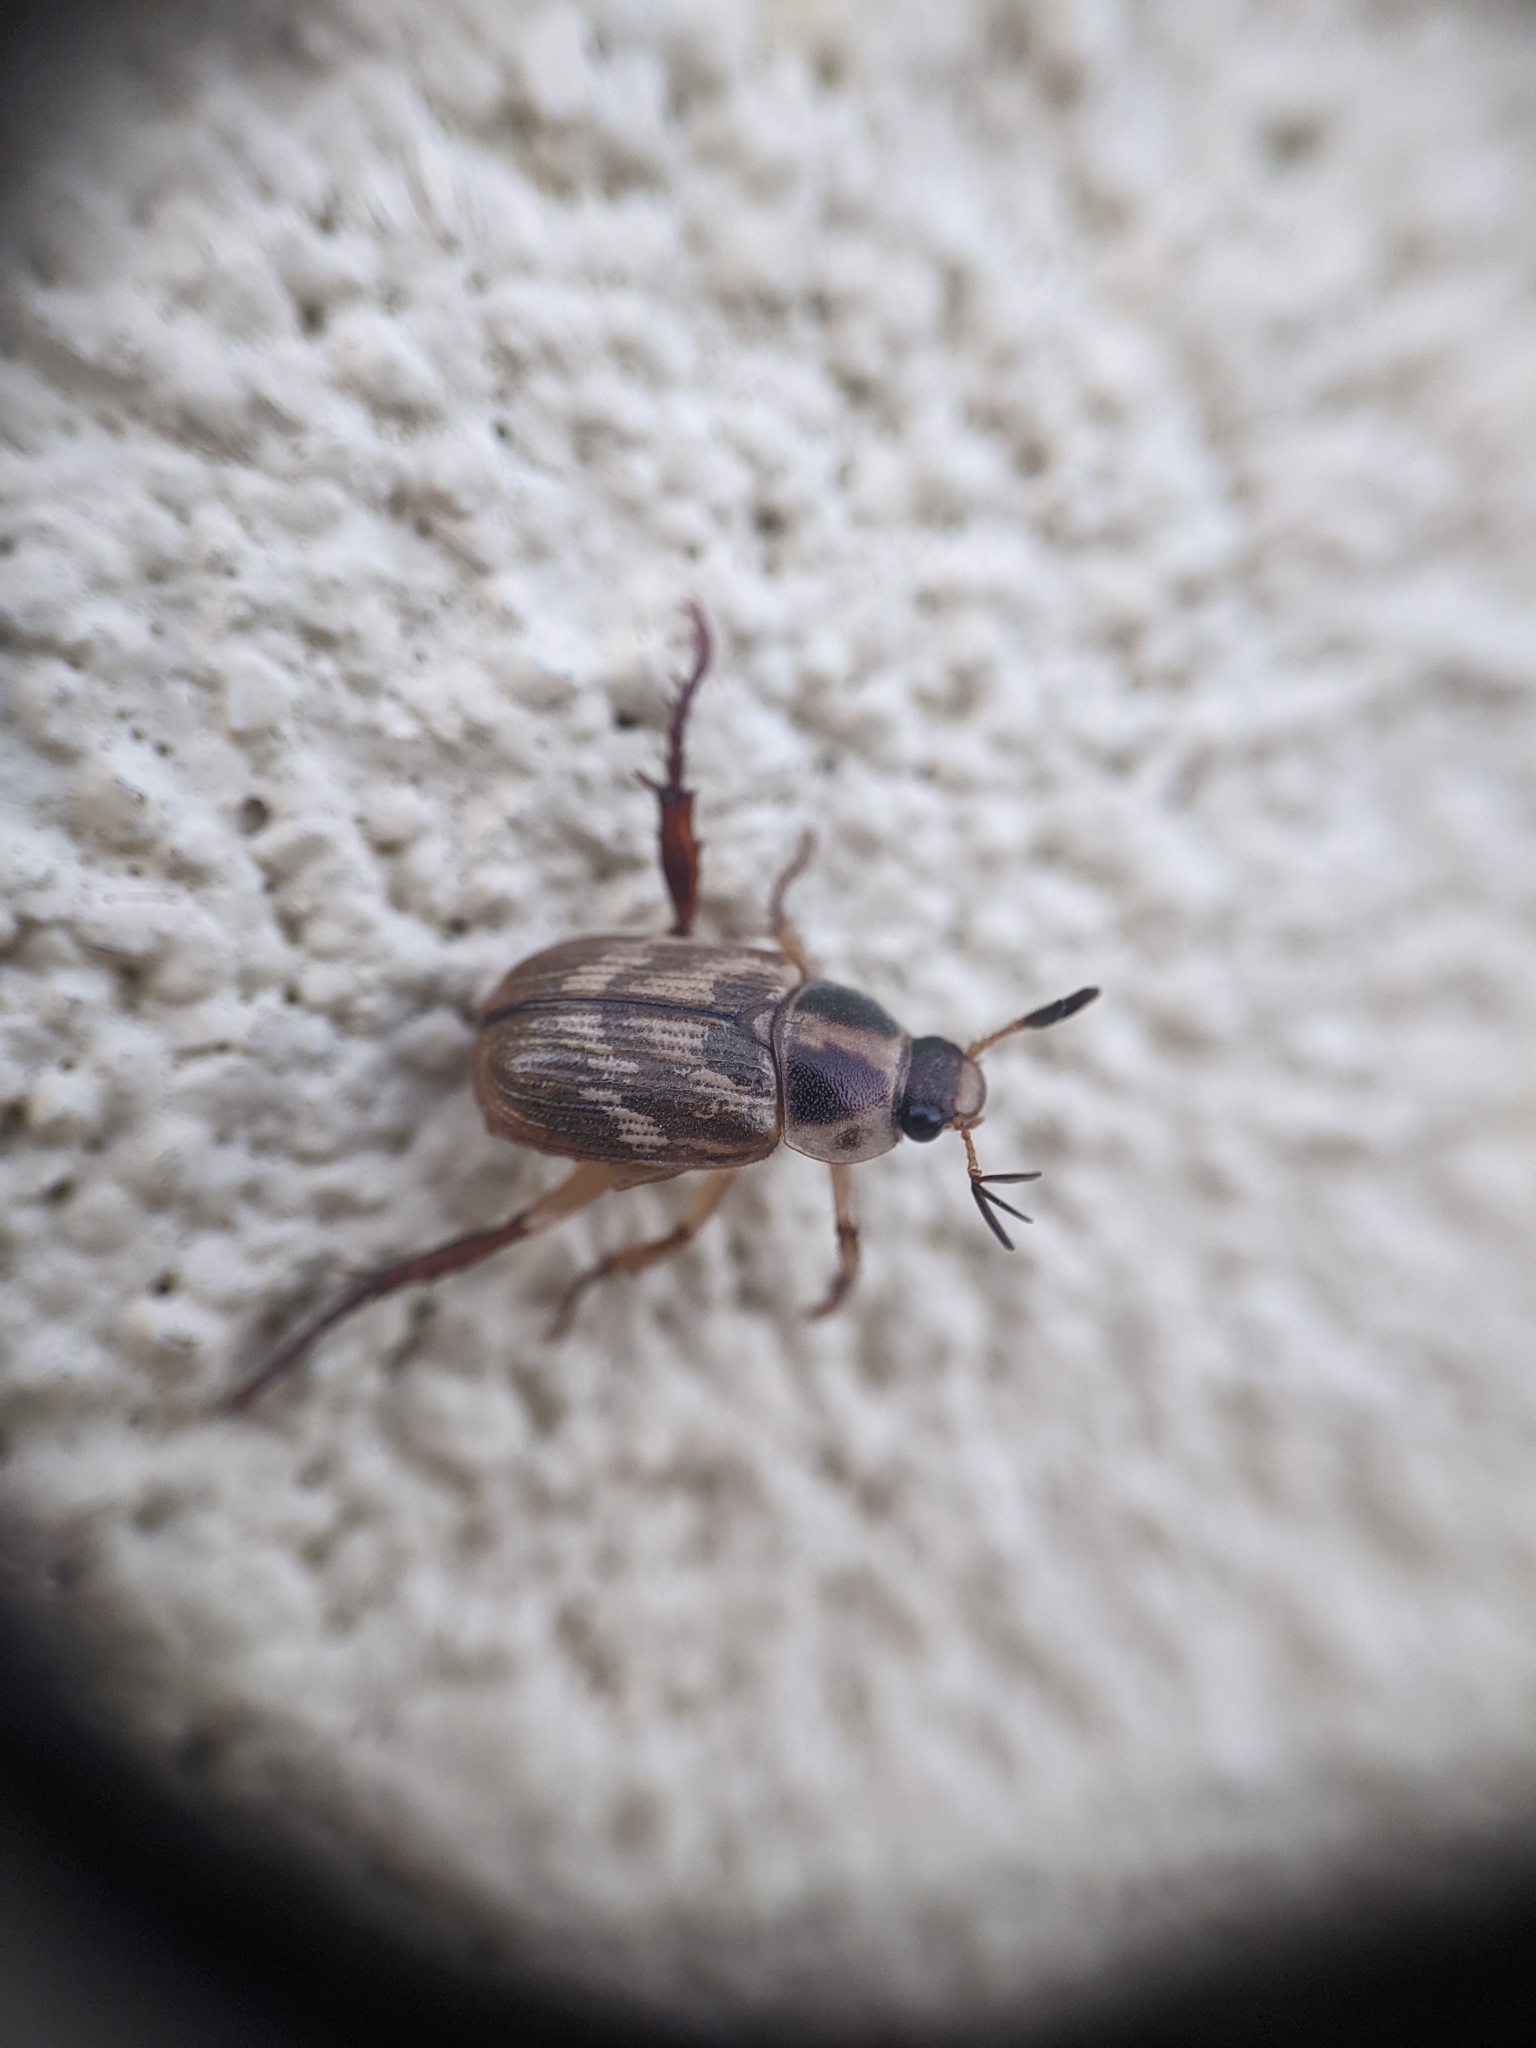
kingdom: Animalia
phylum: Arthropoda
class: Insecta
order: Coleoptera
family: Scarabaeidae
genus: Exomala
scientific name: Exomala orientalis
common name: Oriental beetle
